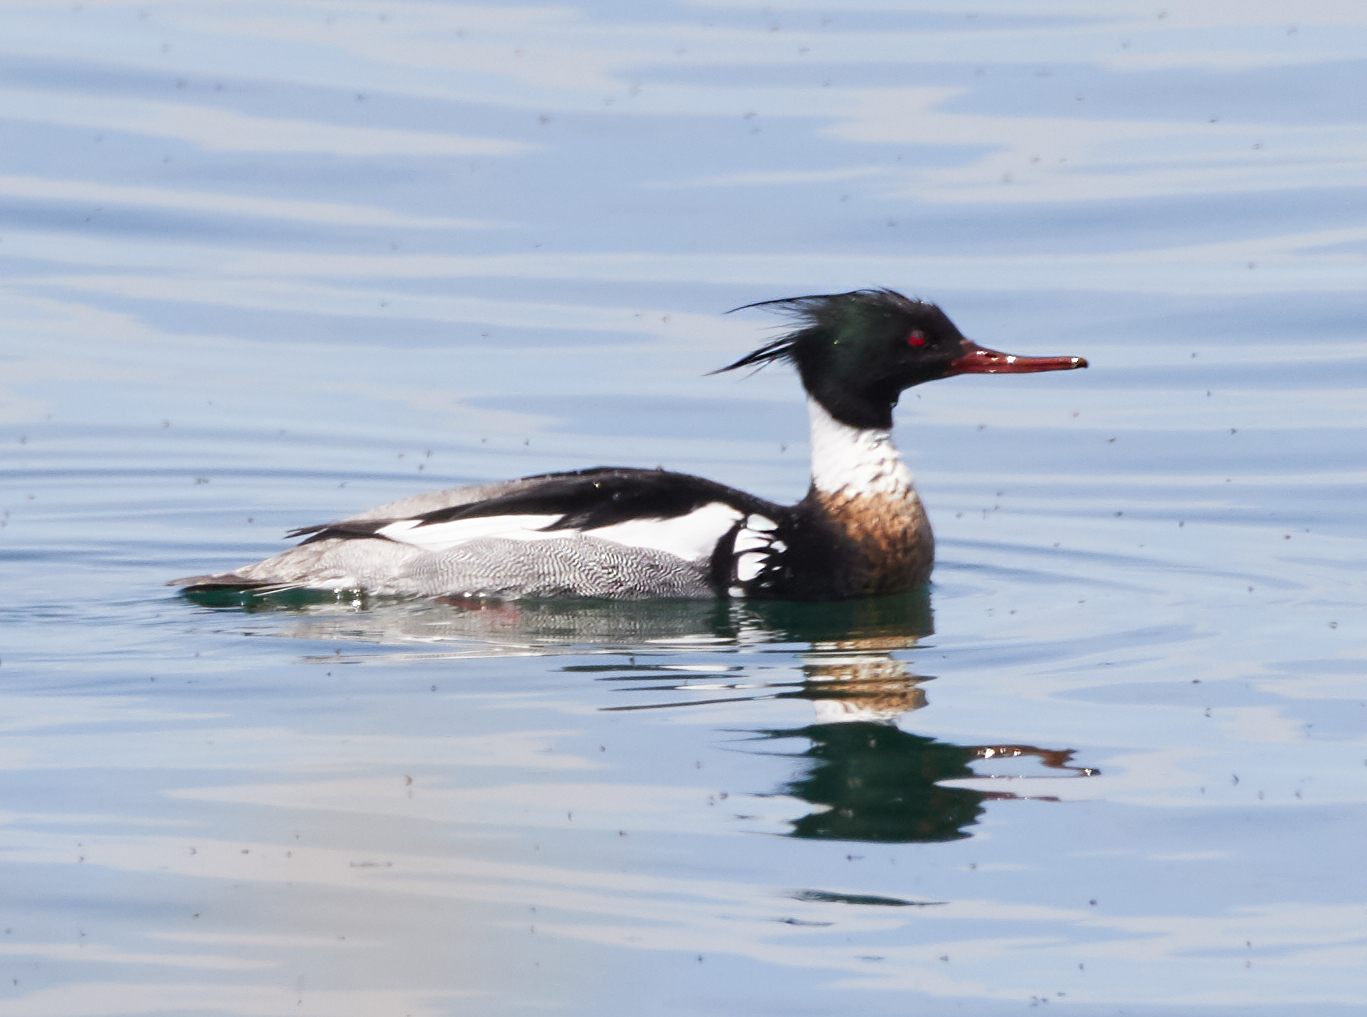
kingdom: Animalia
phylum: Chordata
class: Aves
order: Anseriformes
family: Anatidae
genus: Mergus
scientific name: Mergus serrator
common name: Red-breasted merganser
